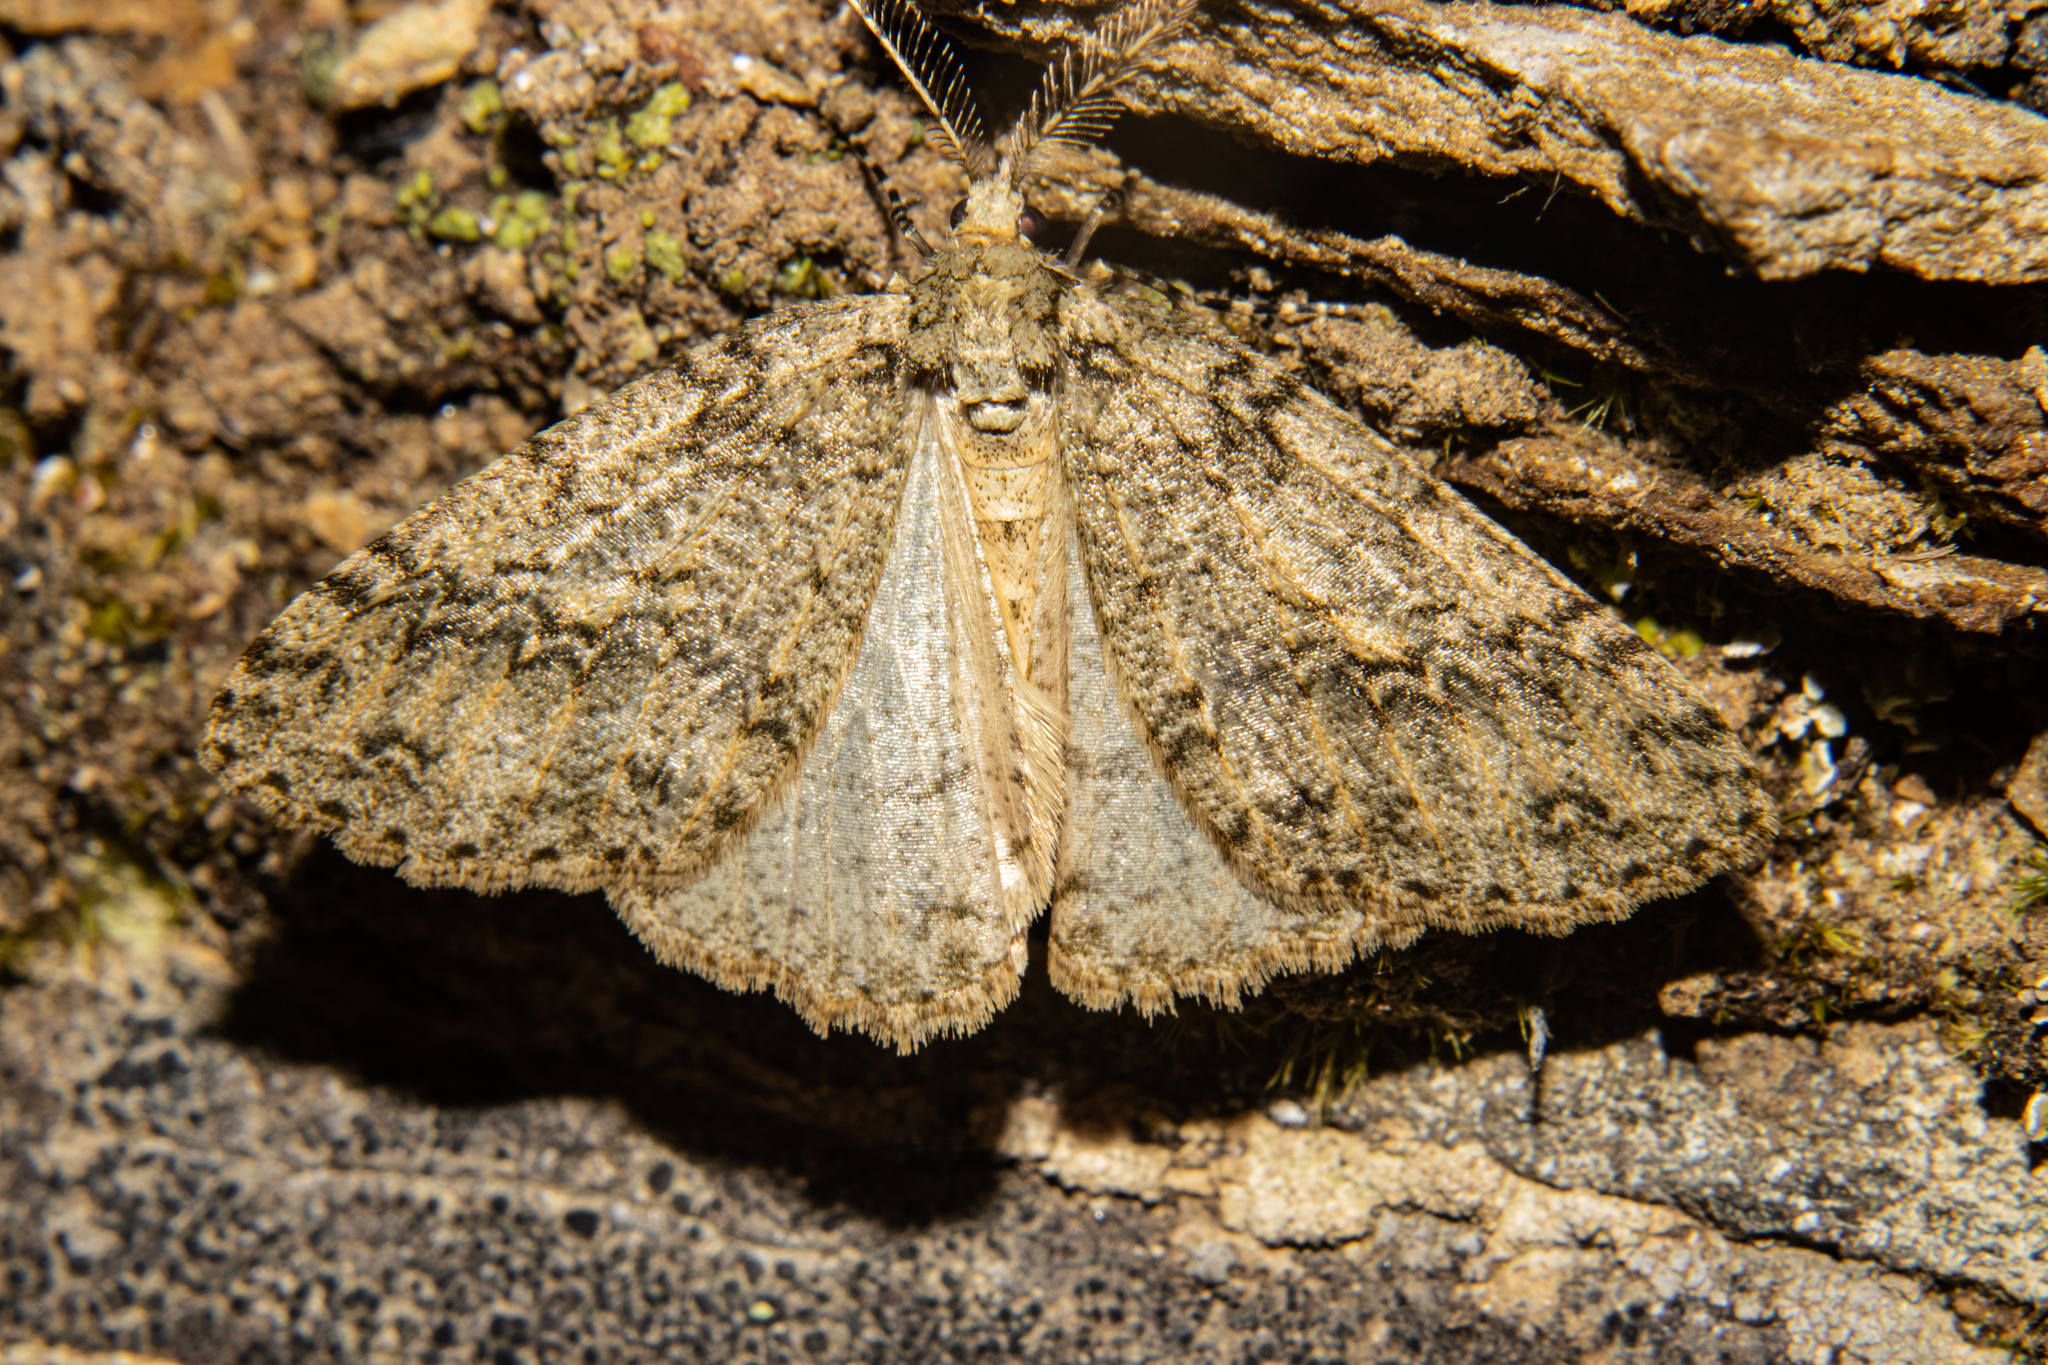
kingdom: Animalia
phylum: Arthropoda
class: Insecta
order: Lepidoptera
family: Geometridae
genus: Pseudocoremia
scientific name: Pseudocoremia rudisata
